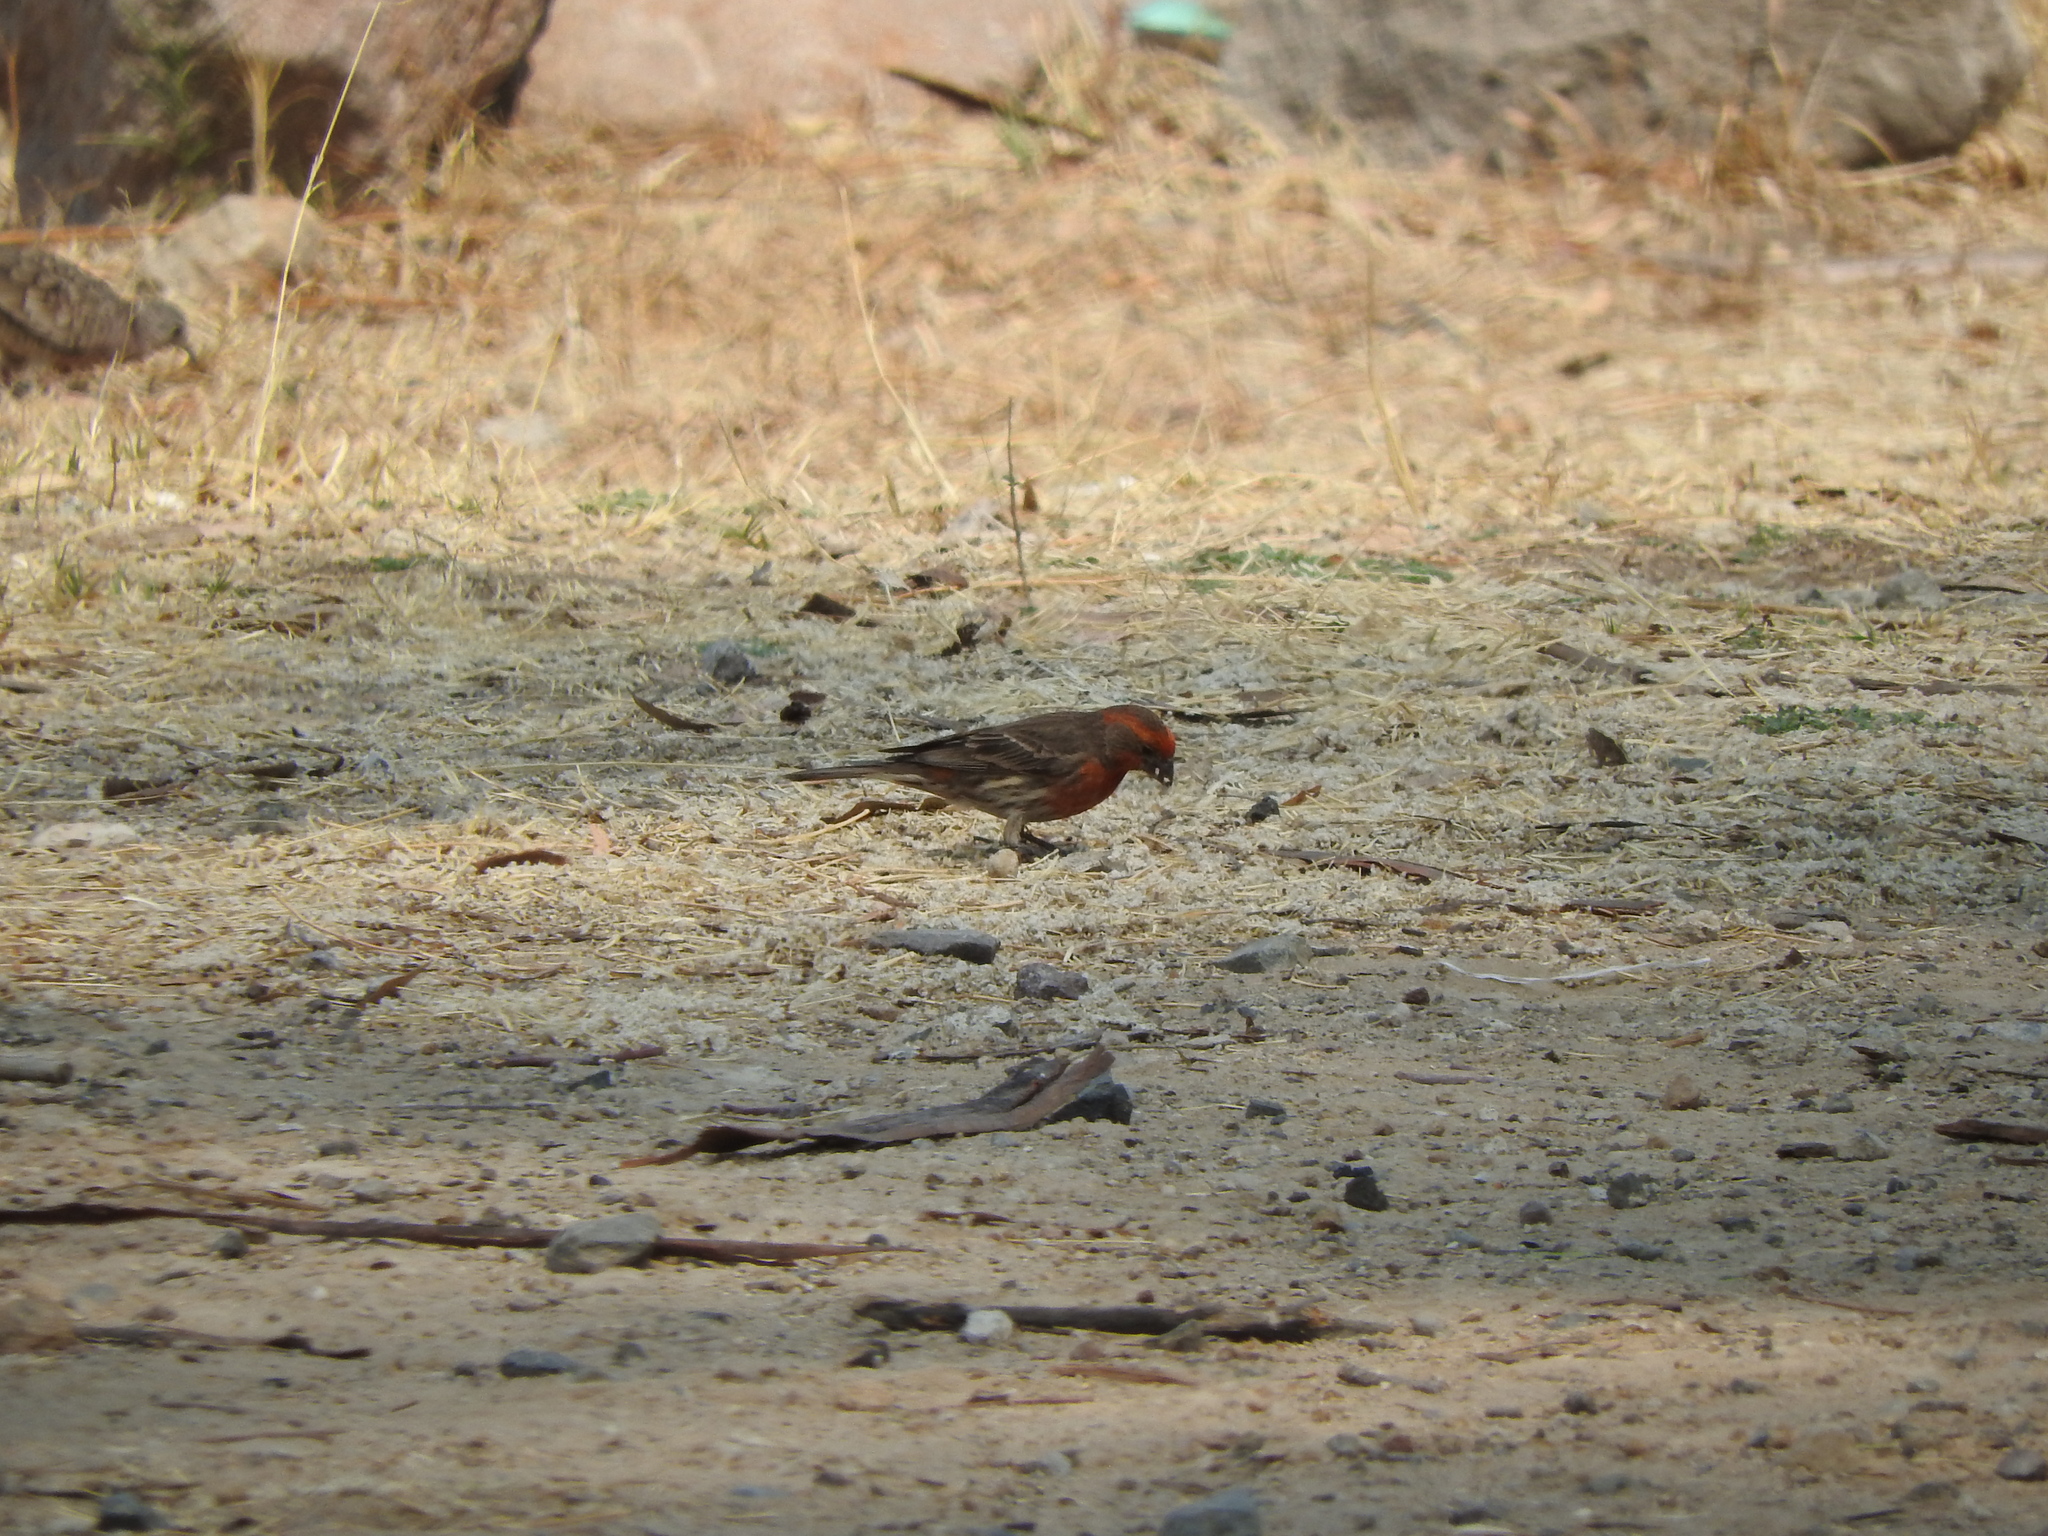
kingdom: Animalia
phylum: Chordata
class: Aves
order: Passeriformes
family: Fringillidae
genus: Haemorhous
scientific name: Haemorhous mexicanus
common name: House finch
